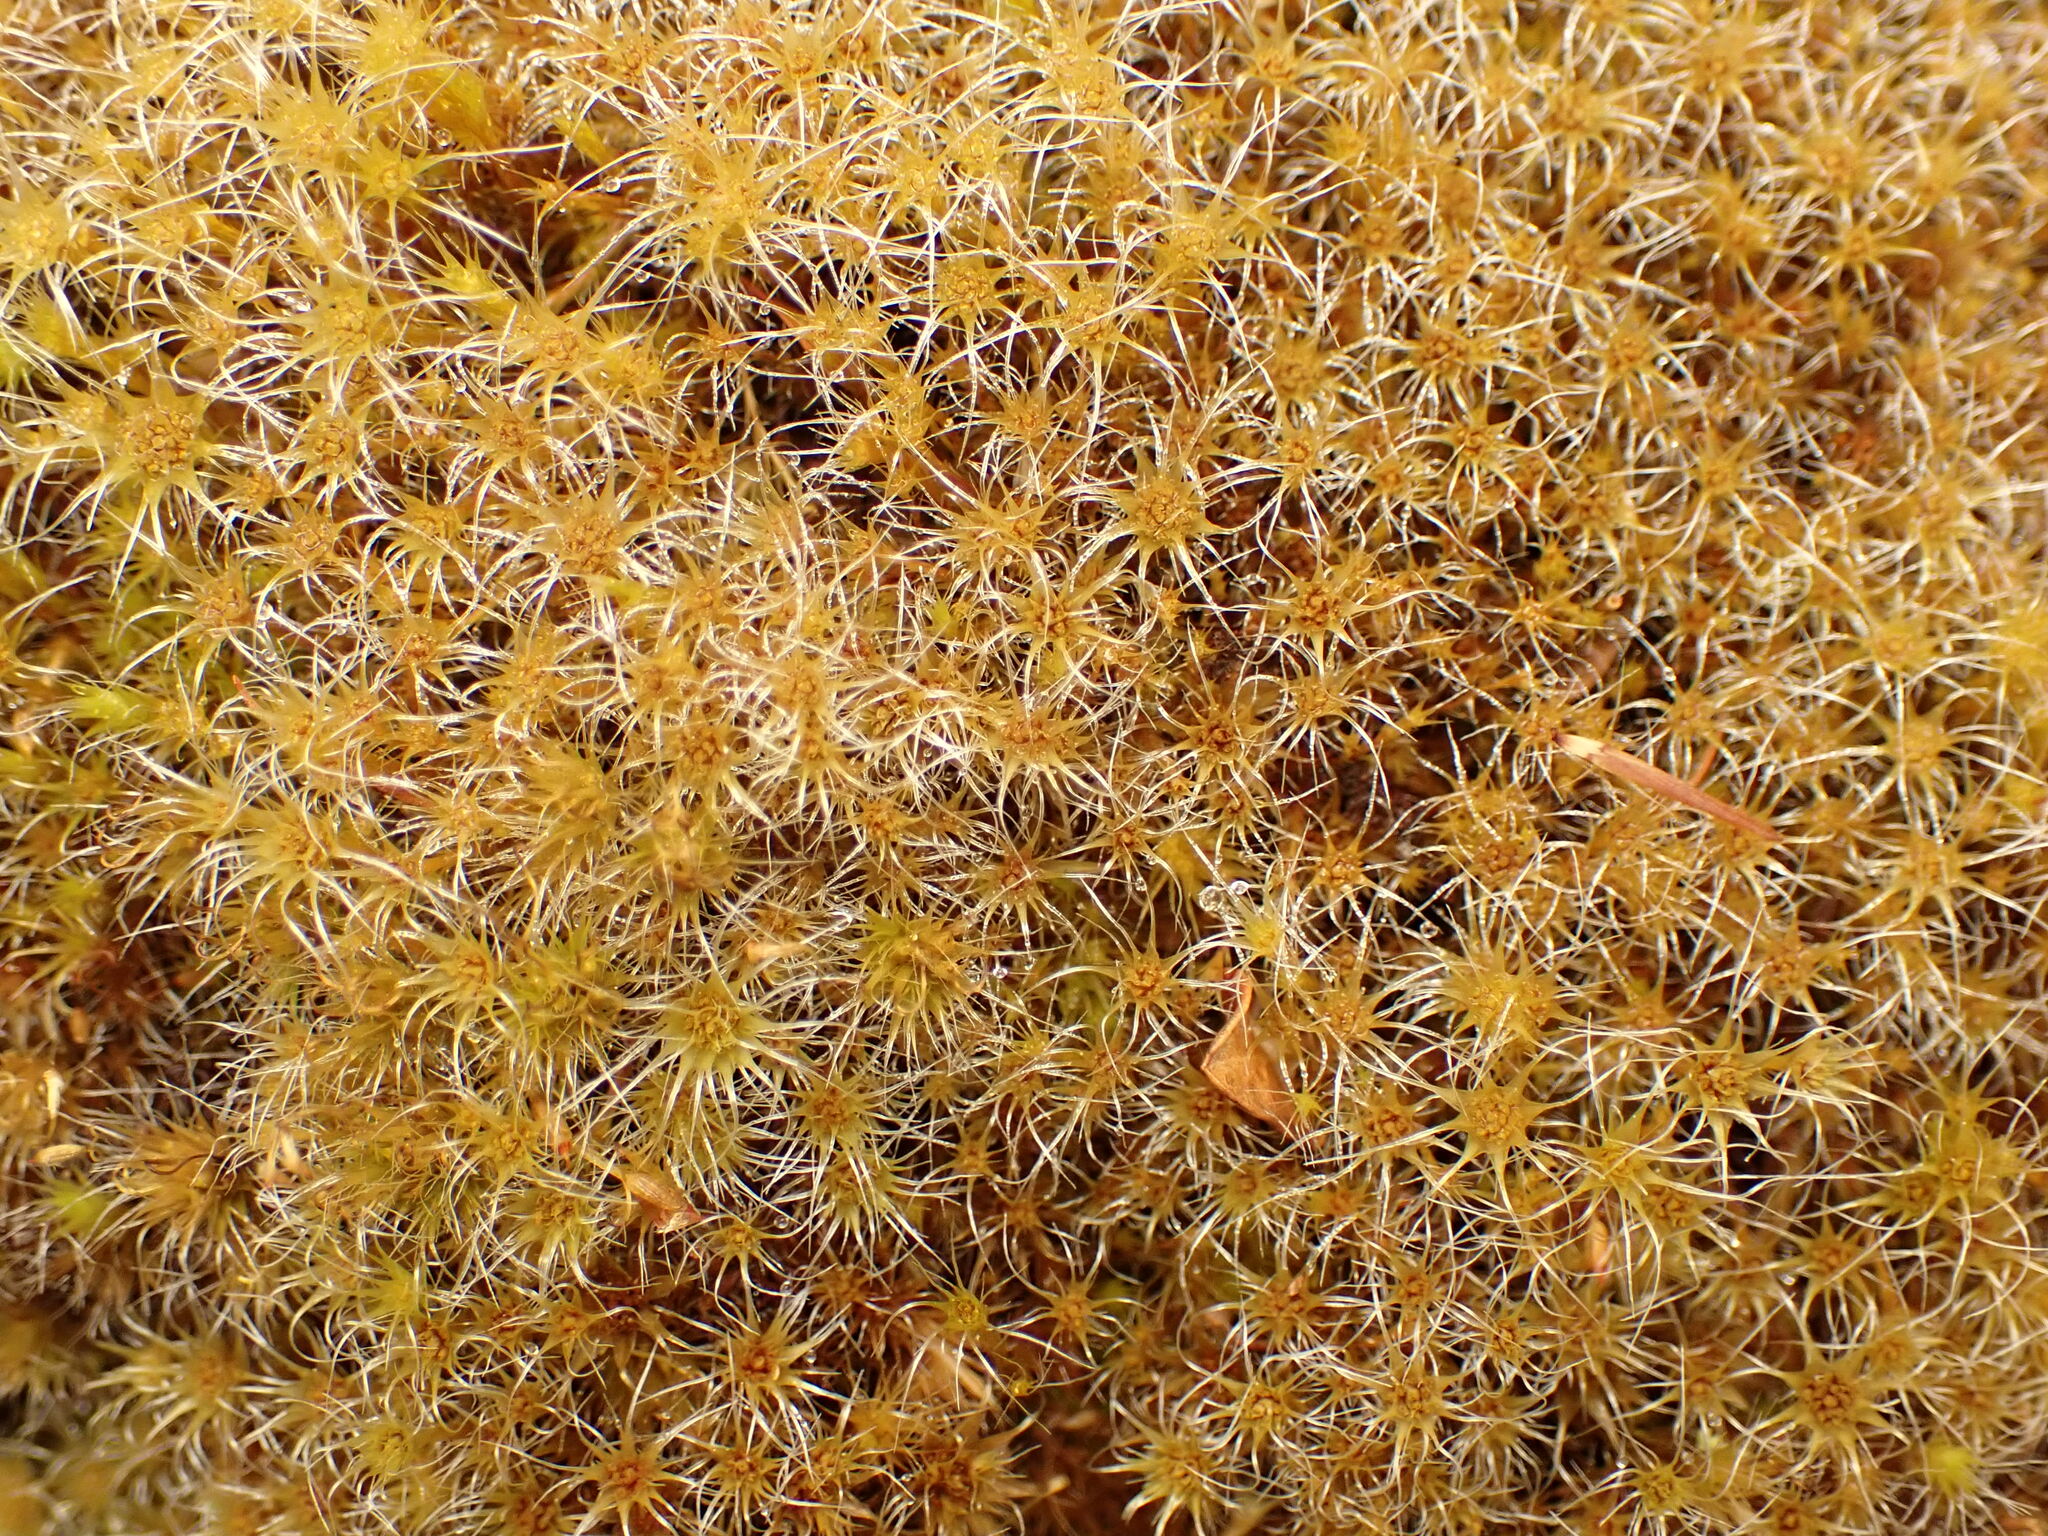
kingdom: Plantae
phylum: Bryophyta
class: Bryopsida
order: Dicranales
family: Leucobryaceae
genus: Campylopus
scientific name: Campylopus introflexus
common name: Heath star moss
